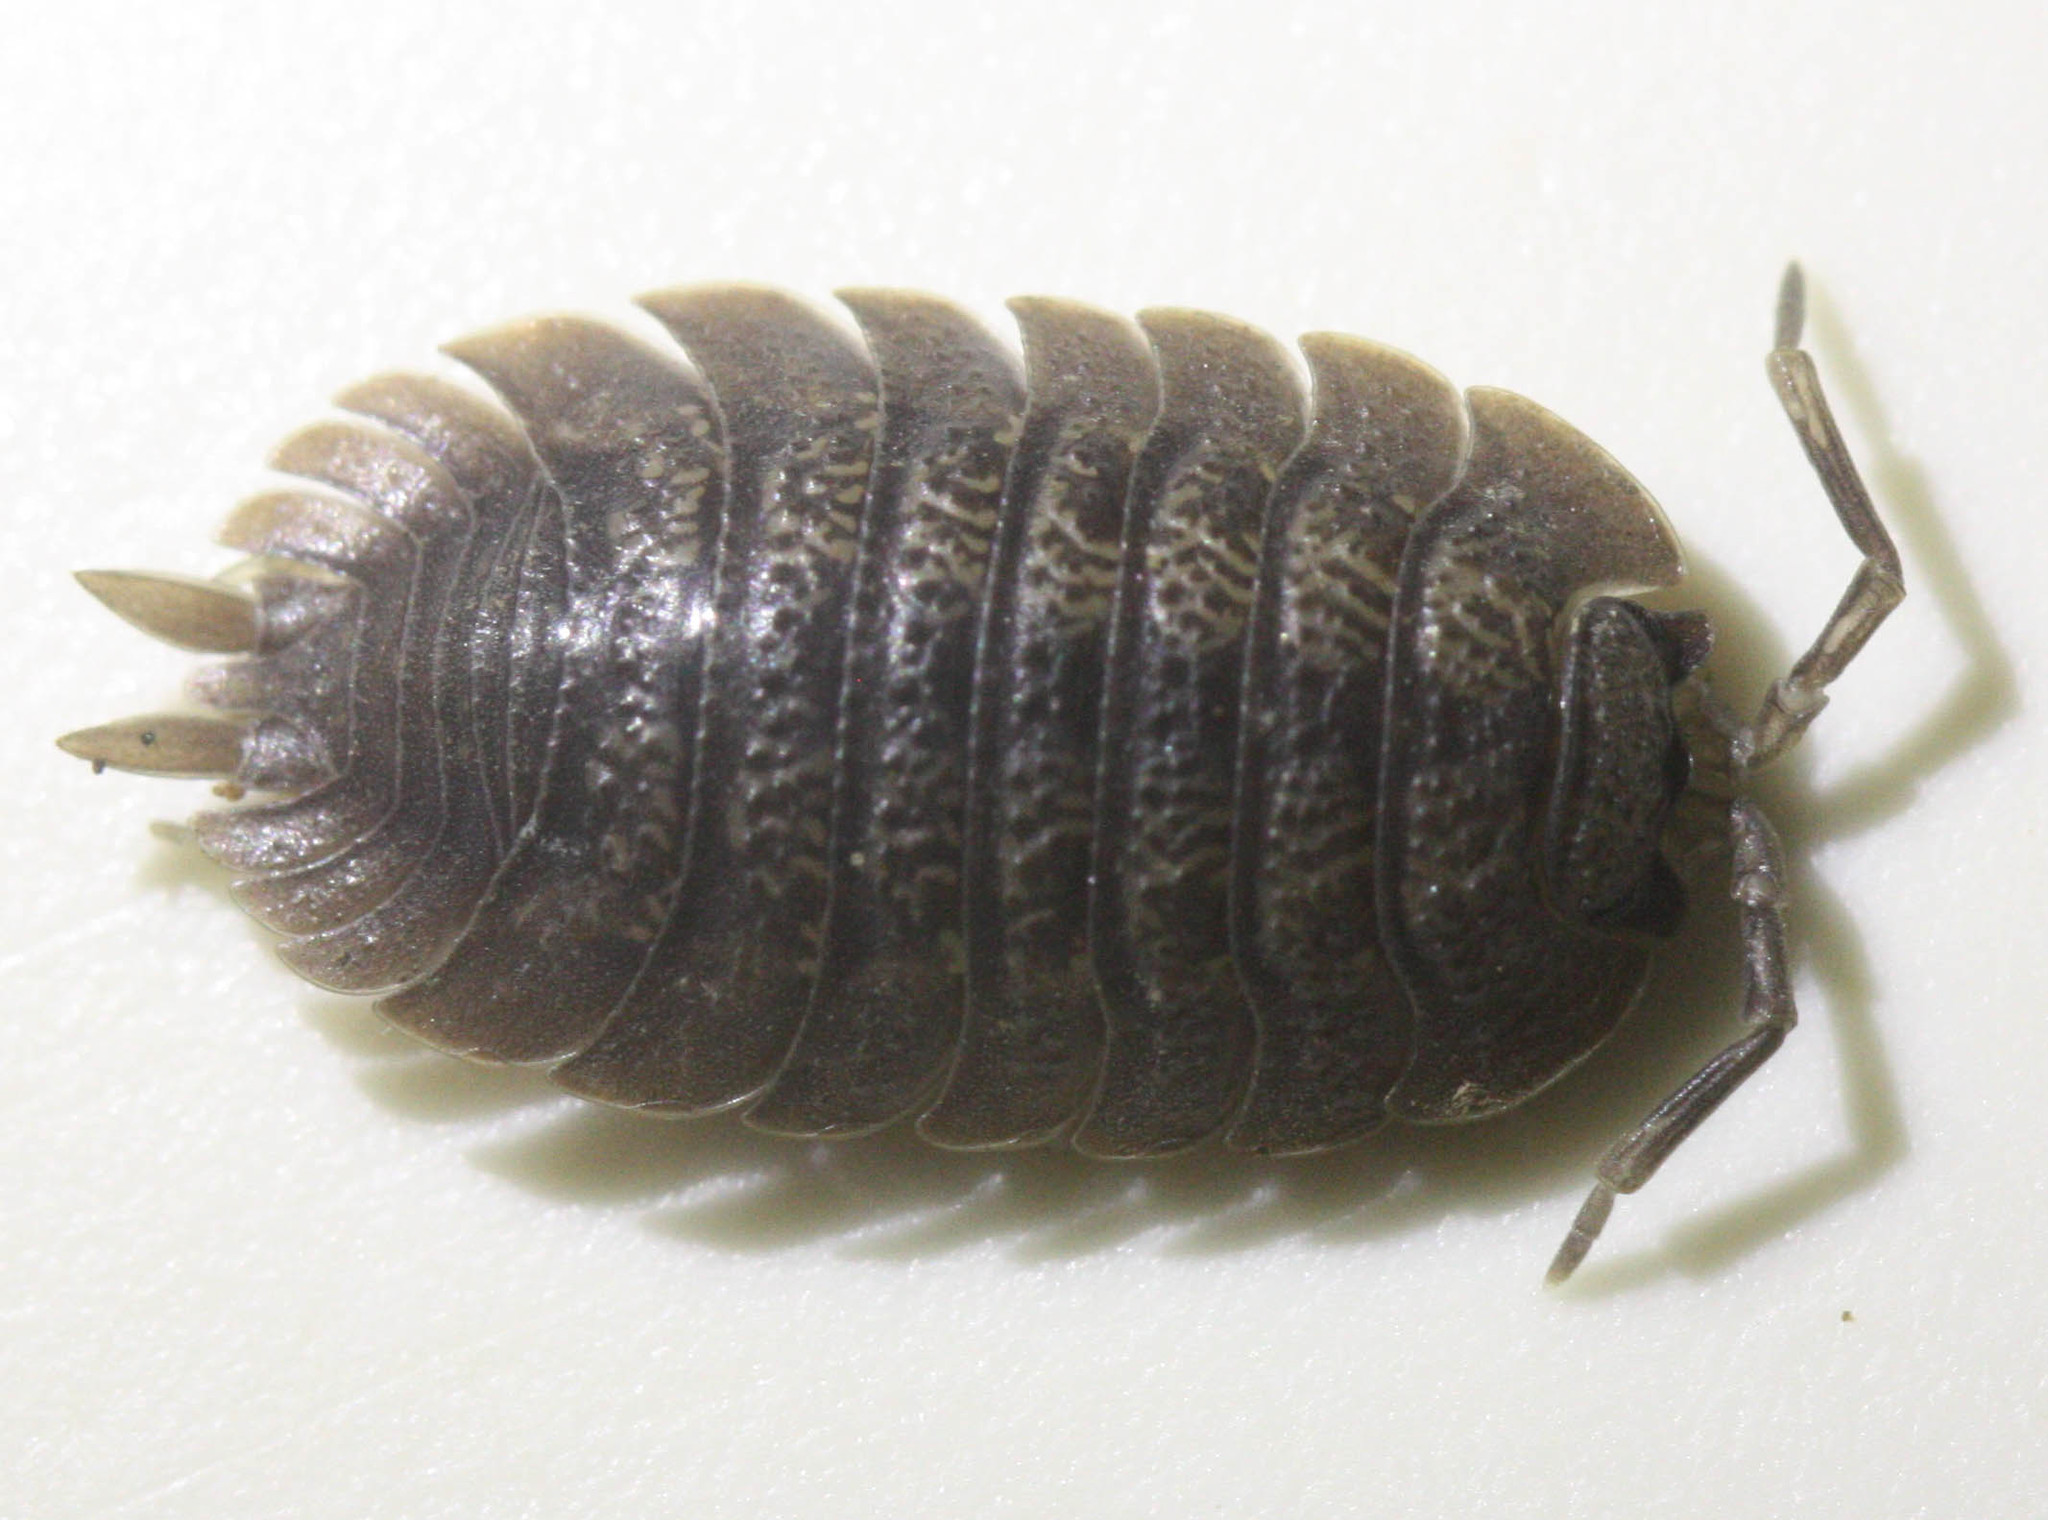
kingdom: Animalia
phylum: Arthropoda
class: Malacostraca
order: Isopoda
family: Porcellionidae
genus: Porcellio
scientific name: Porcellio dilatatus
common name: Isopod
